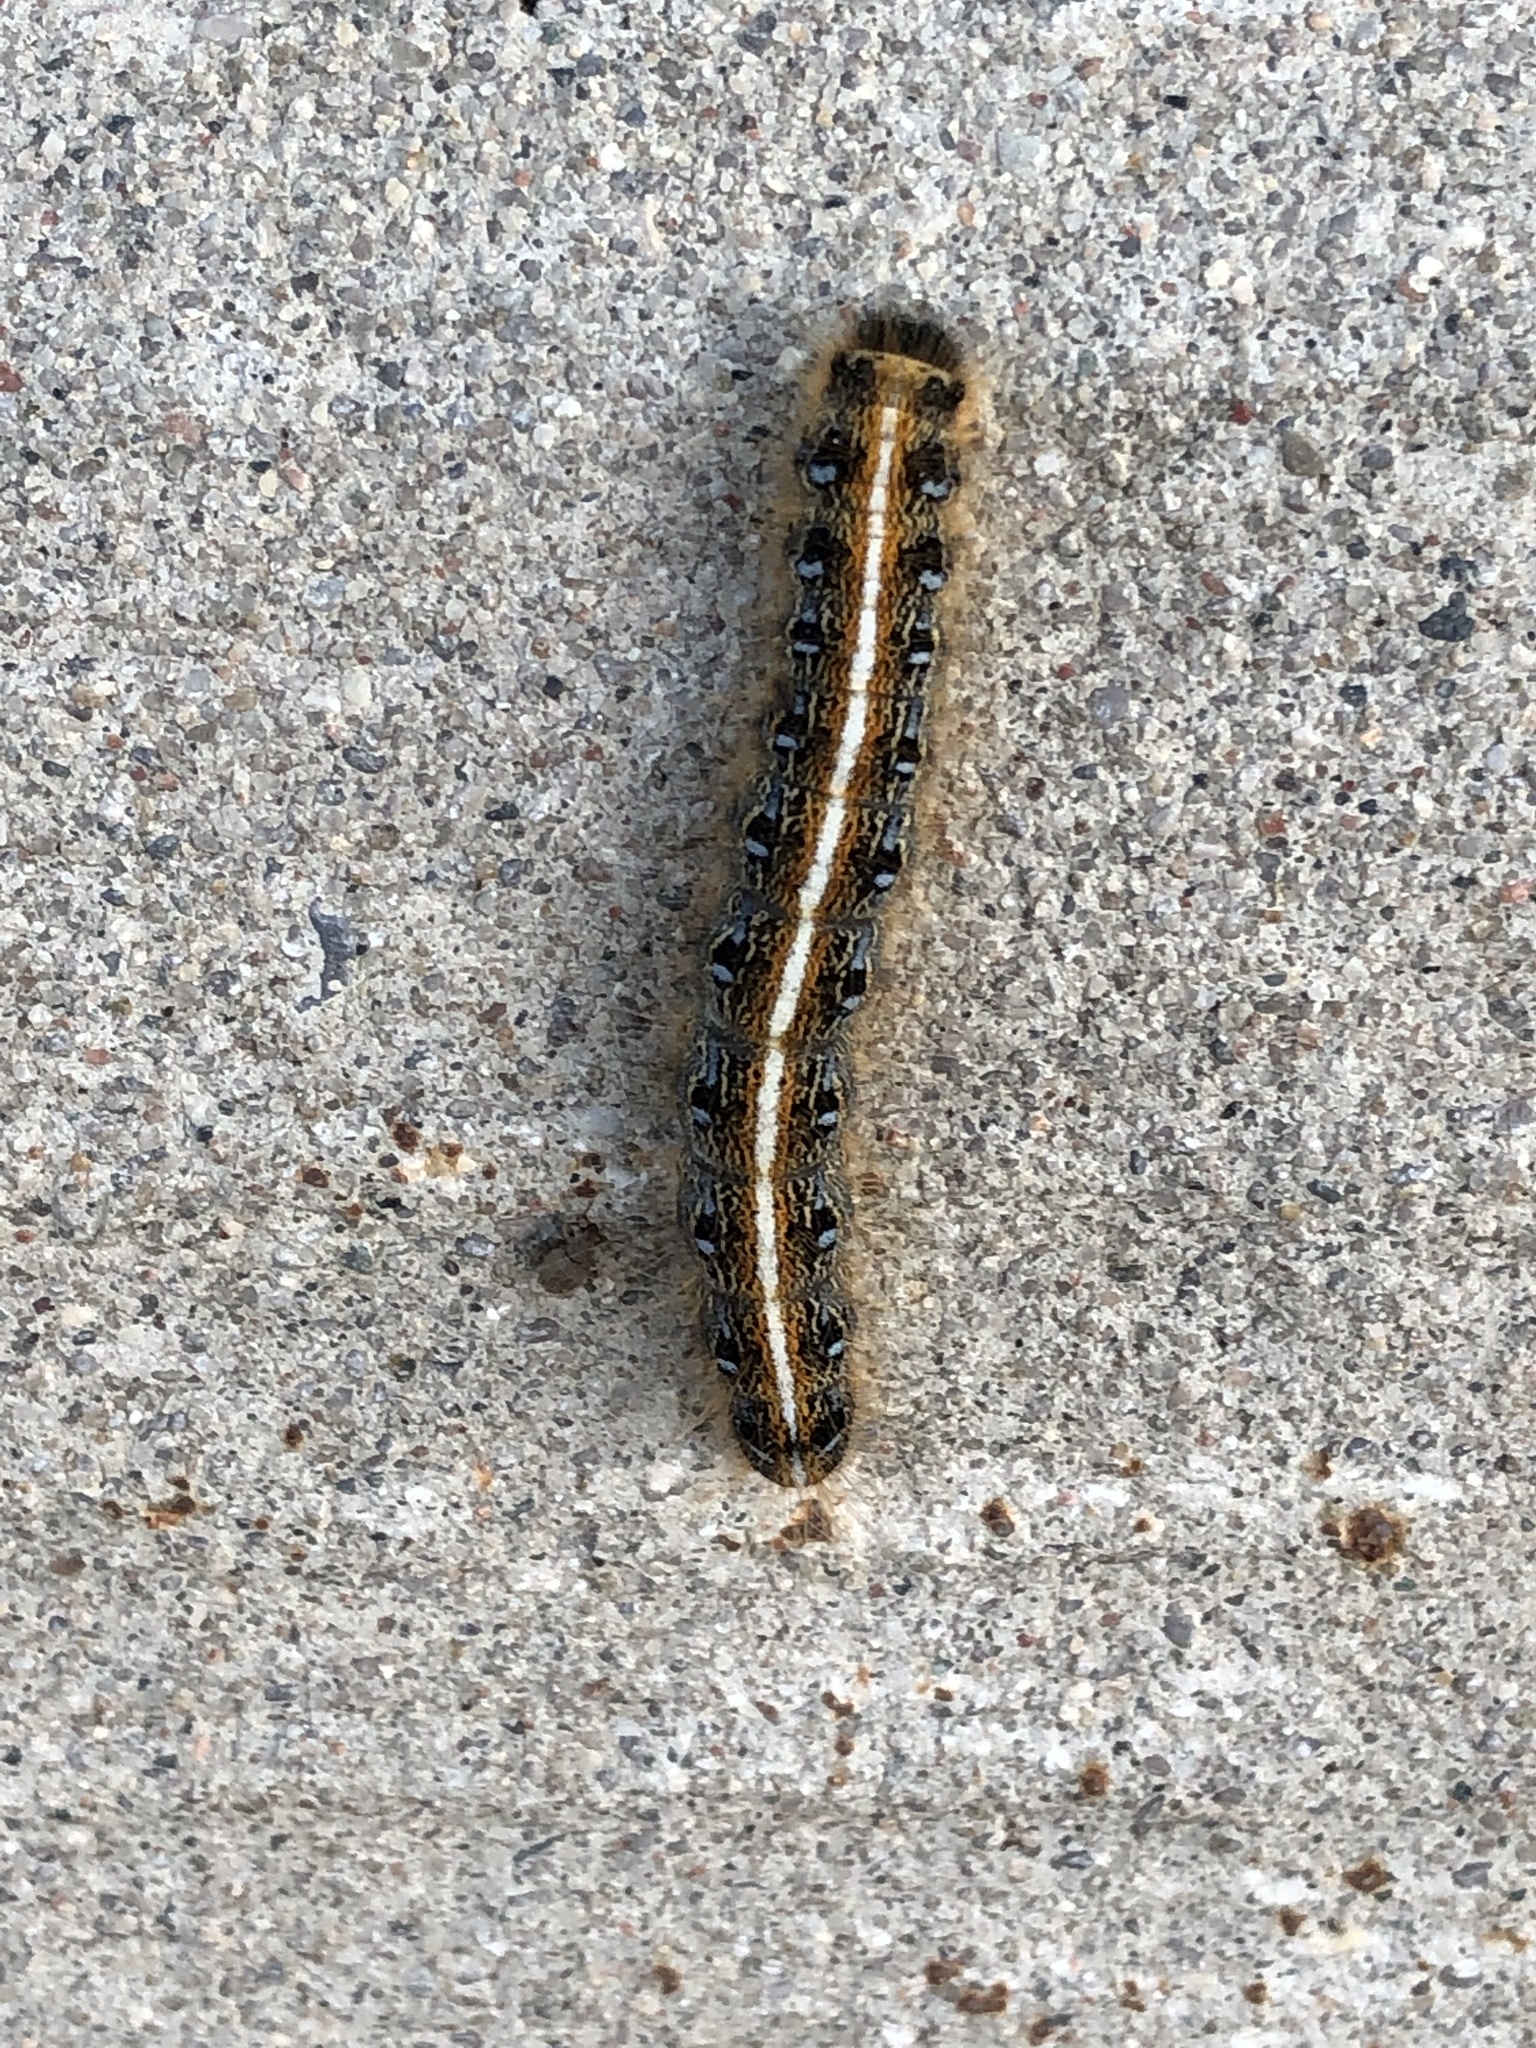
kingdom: Animalia
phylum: Arthropoda
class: Insecta
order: Lepidoptera
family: Lasiocampidae
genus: Malacosoma
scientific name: Malacosoma americana
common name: Eastern tent caterpillar moth
